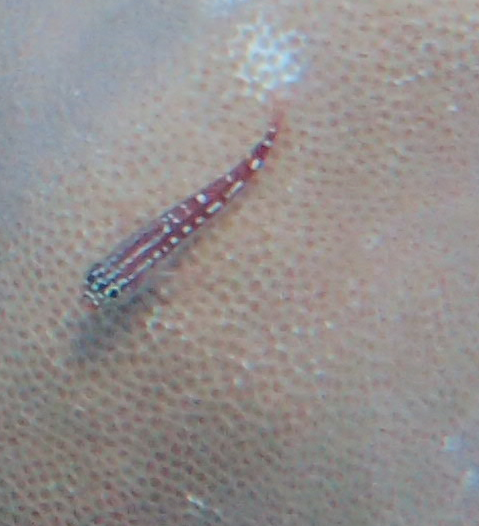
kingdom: Animalia
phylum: Chordata
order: Perciformes
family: Tripterygiidae
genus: Helcogramma
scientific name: Helcogramma maldivensis
